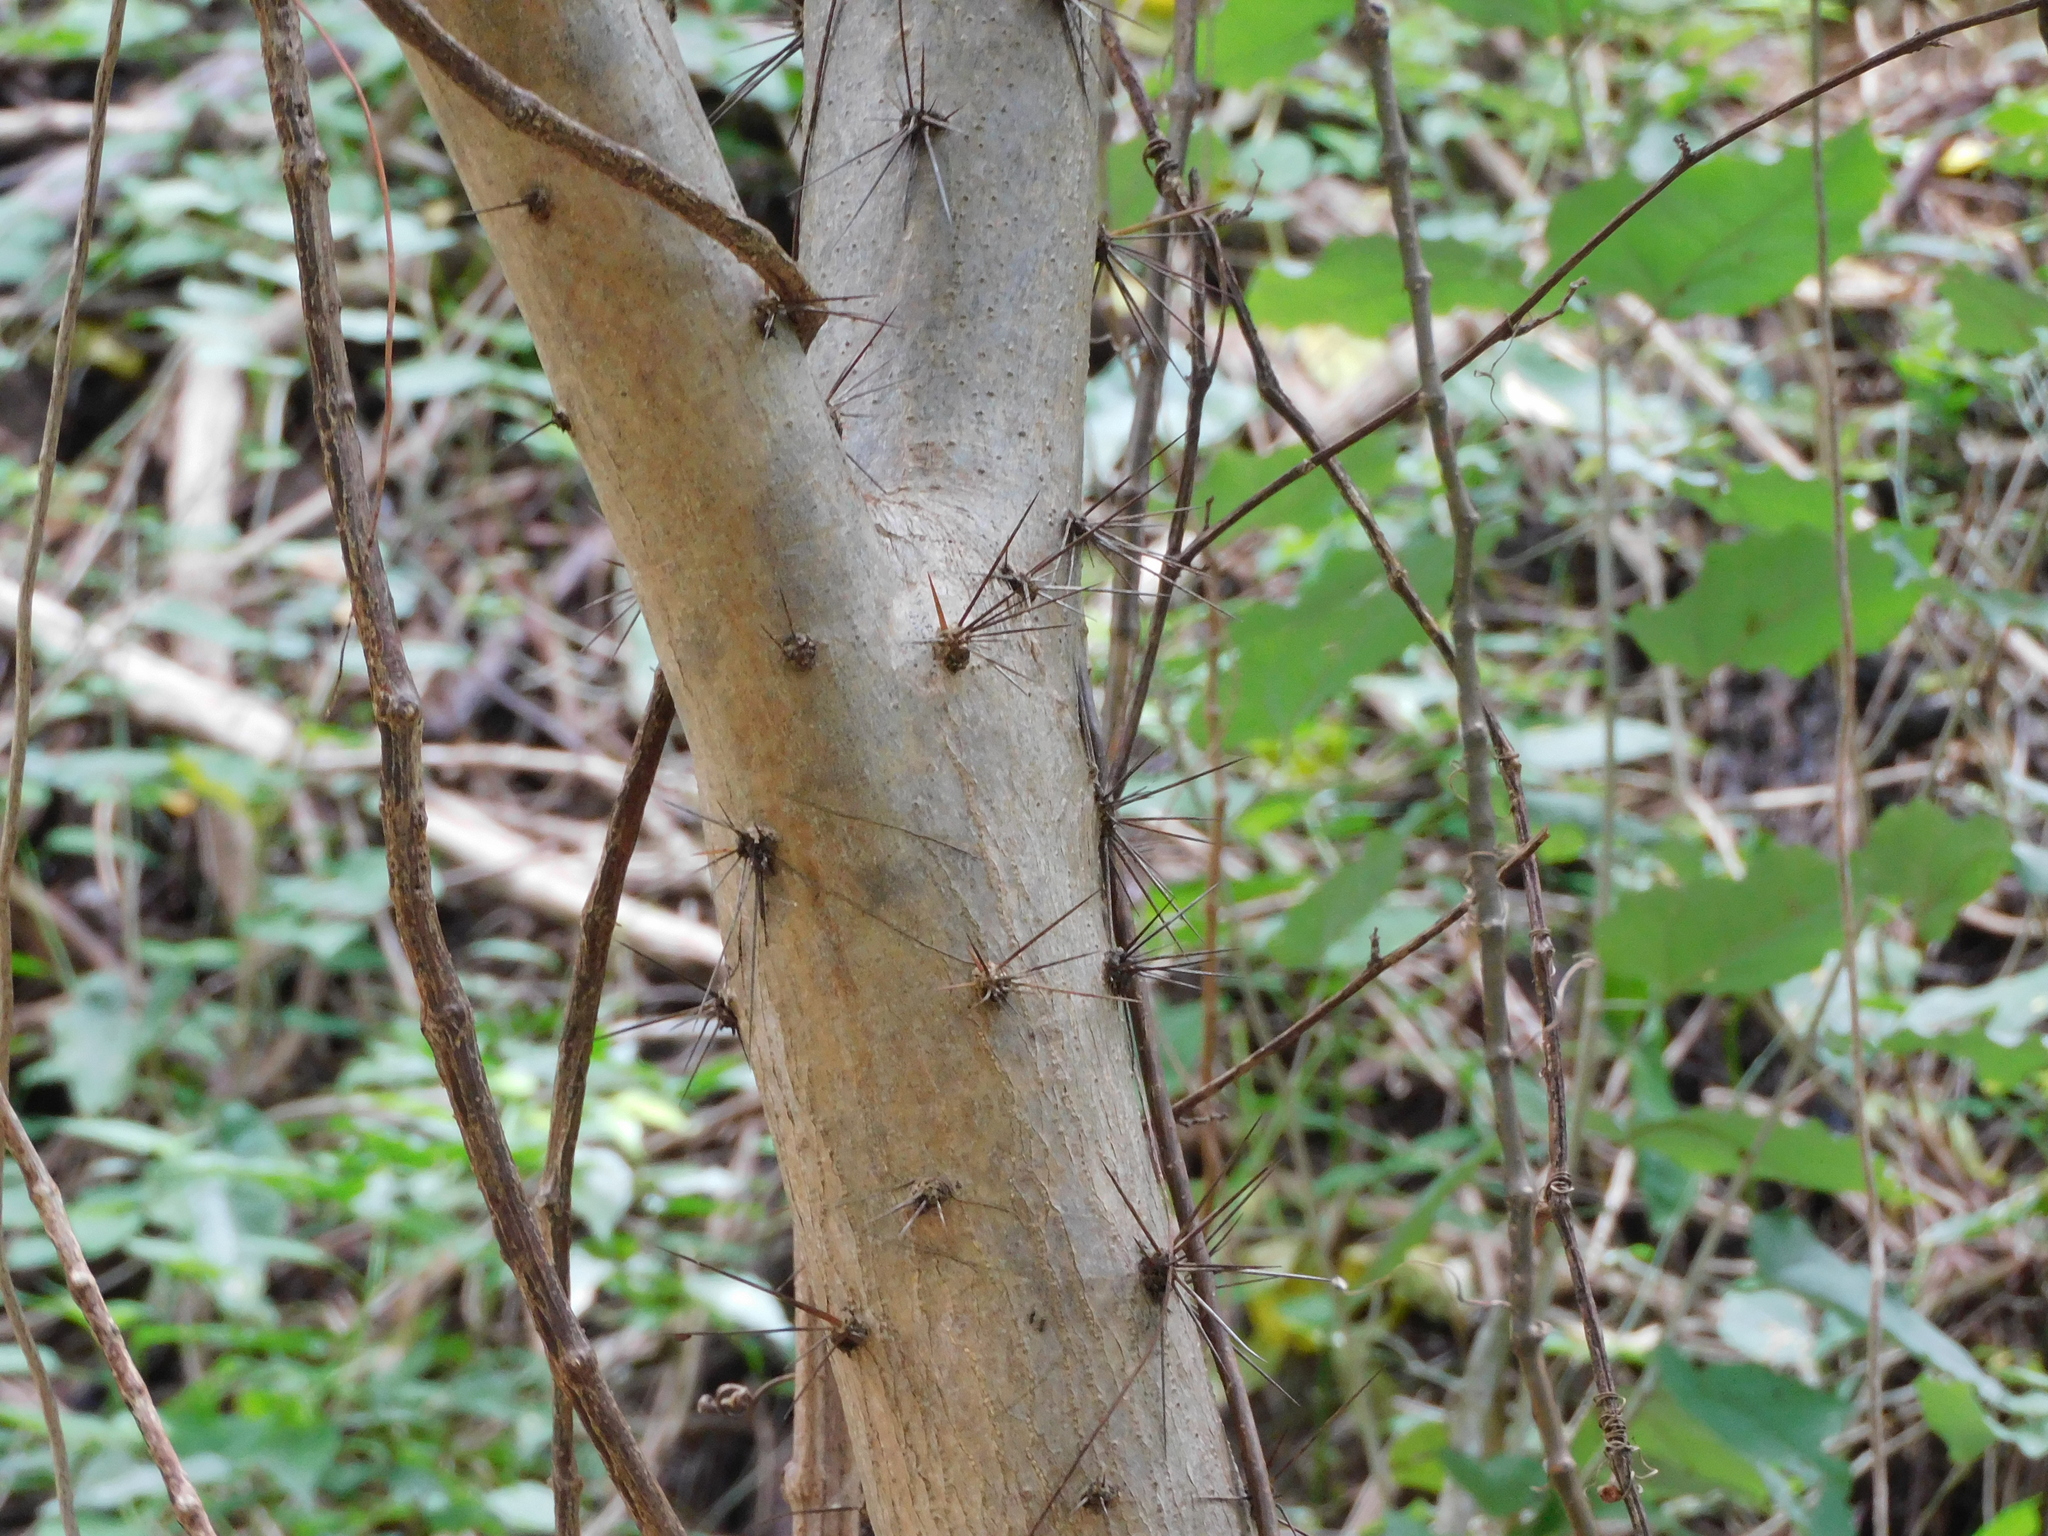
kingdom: Plantae
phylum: Tracheophyta
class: Magnoliopsida
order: Caryophyllales
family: Cactaceae
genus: Leuenbergeria
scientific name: Leuenbergeria guamacho
